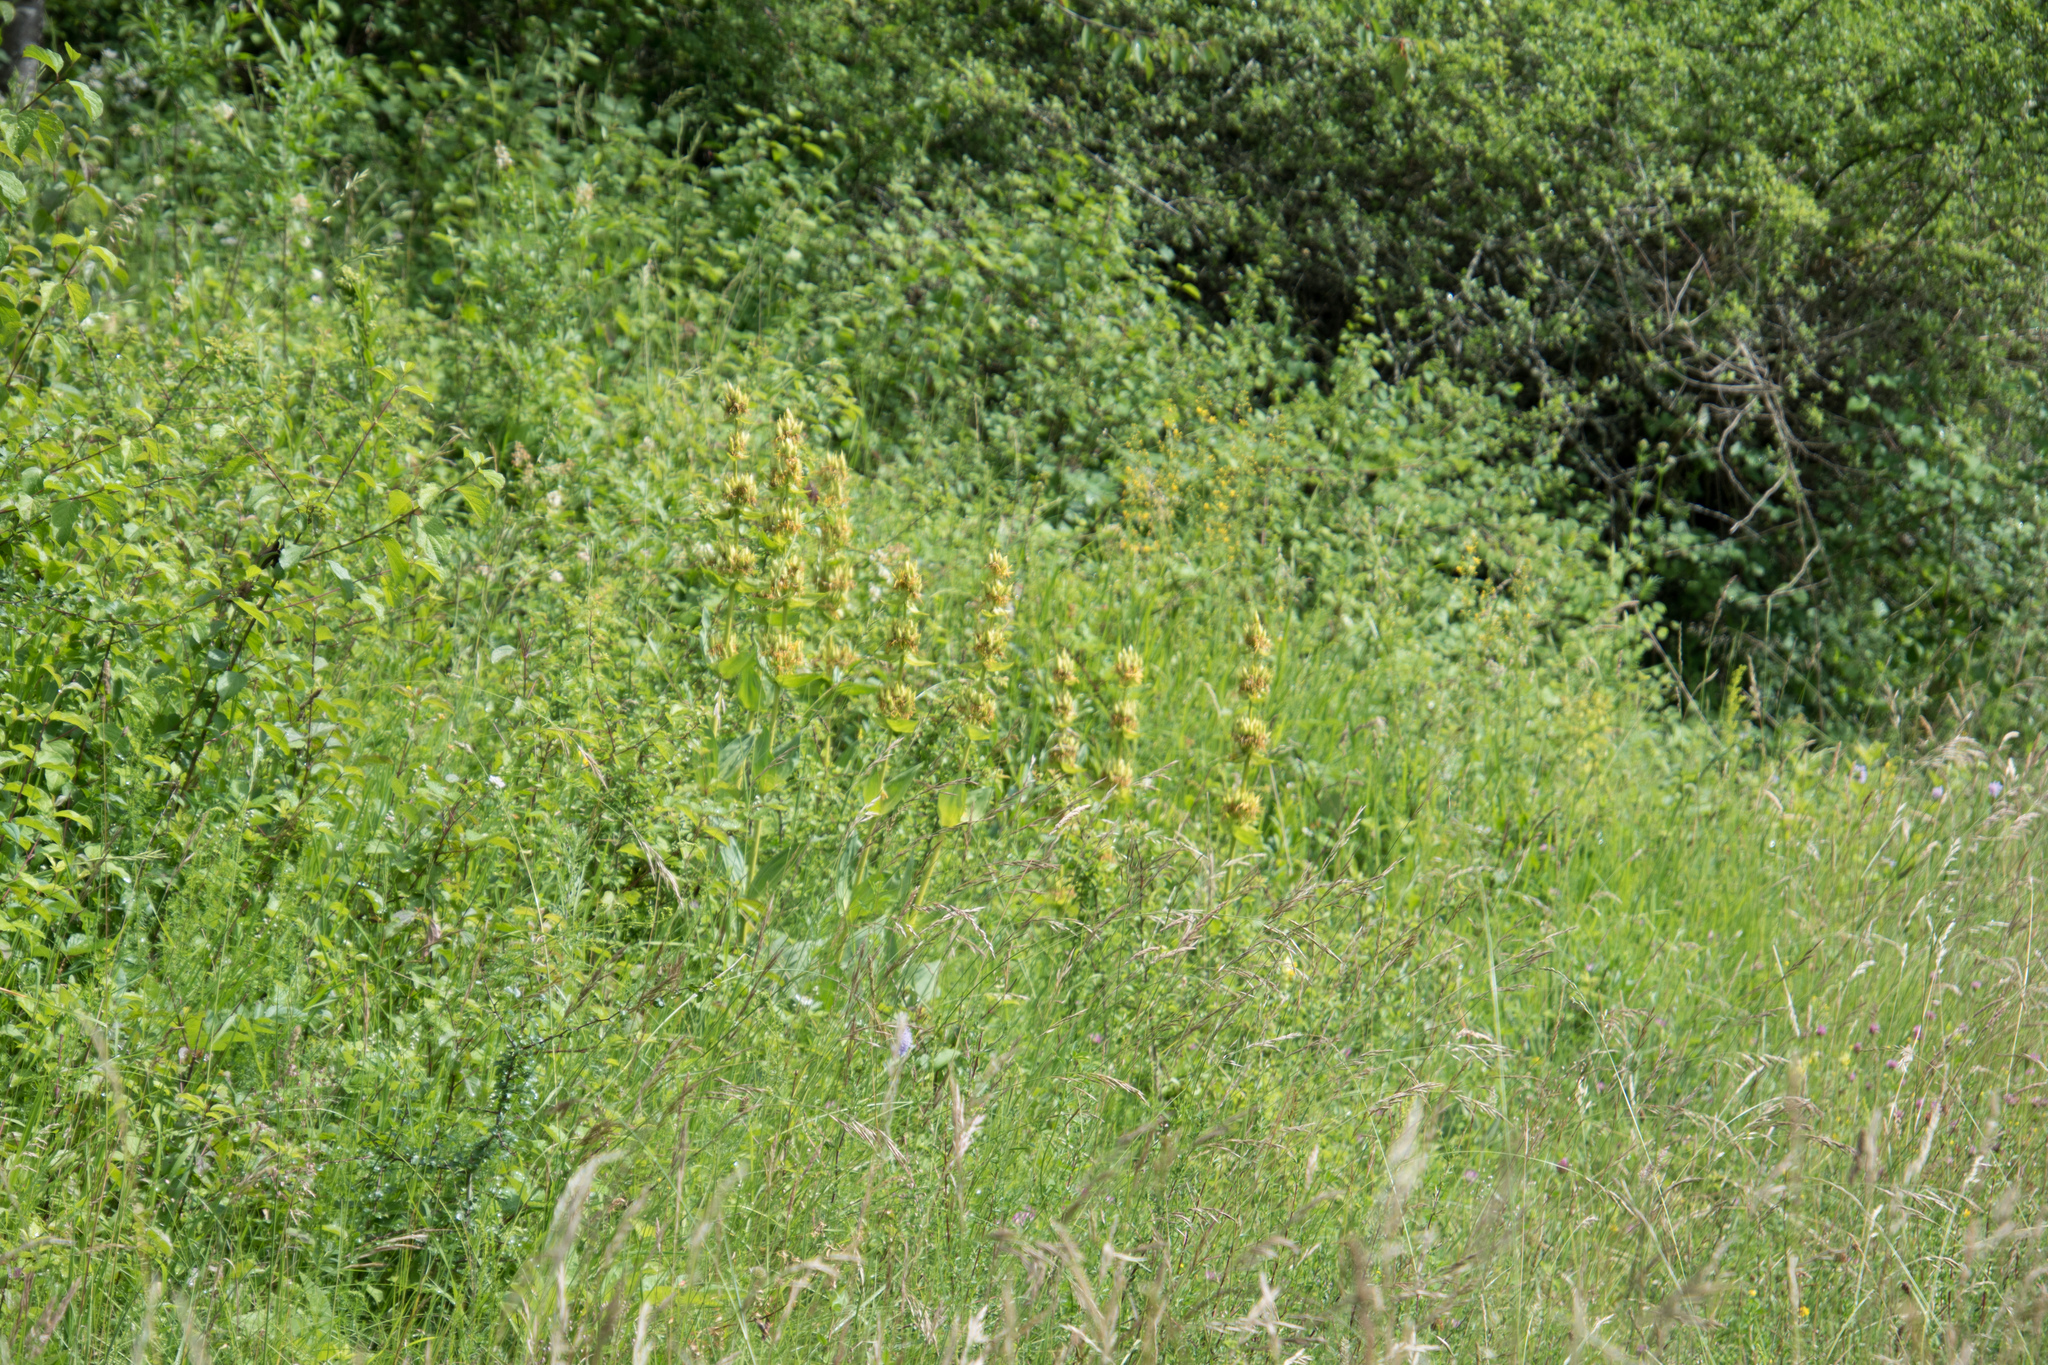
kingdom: Plantae
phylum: Tracheophyta
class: Magnoliopsida
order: Gentianales
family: Gentianaceae
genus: Gentiana
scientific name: Gentiana lutea
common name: Great yellow gentian
